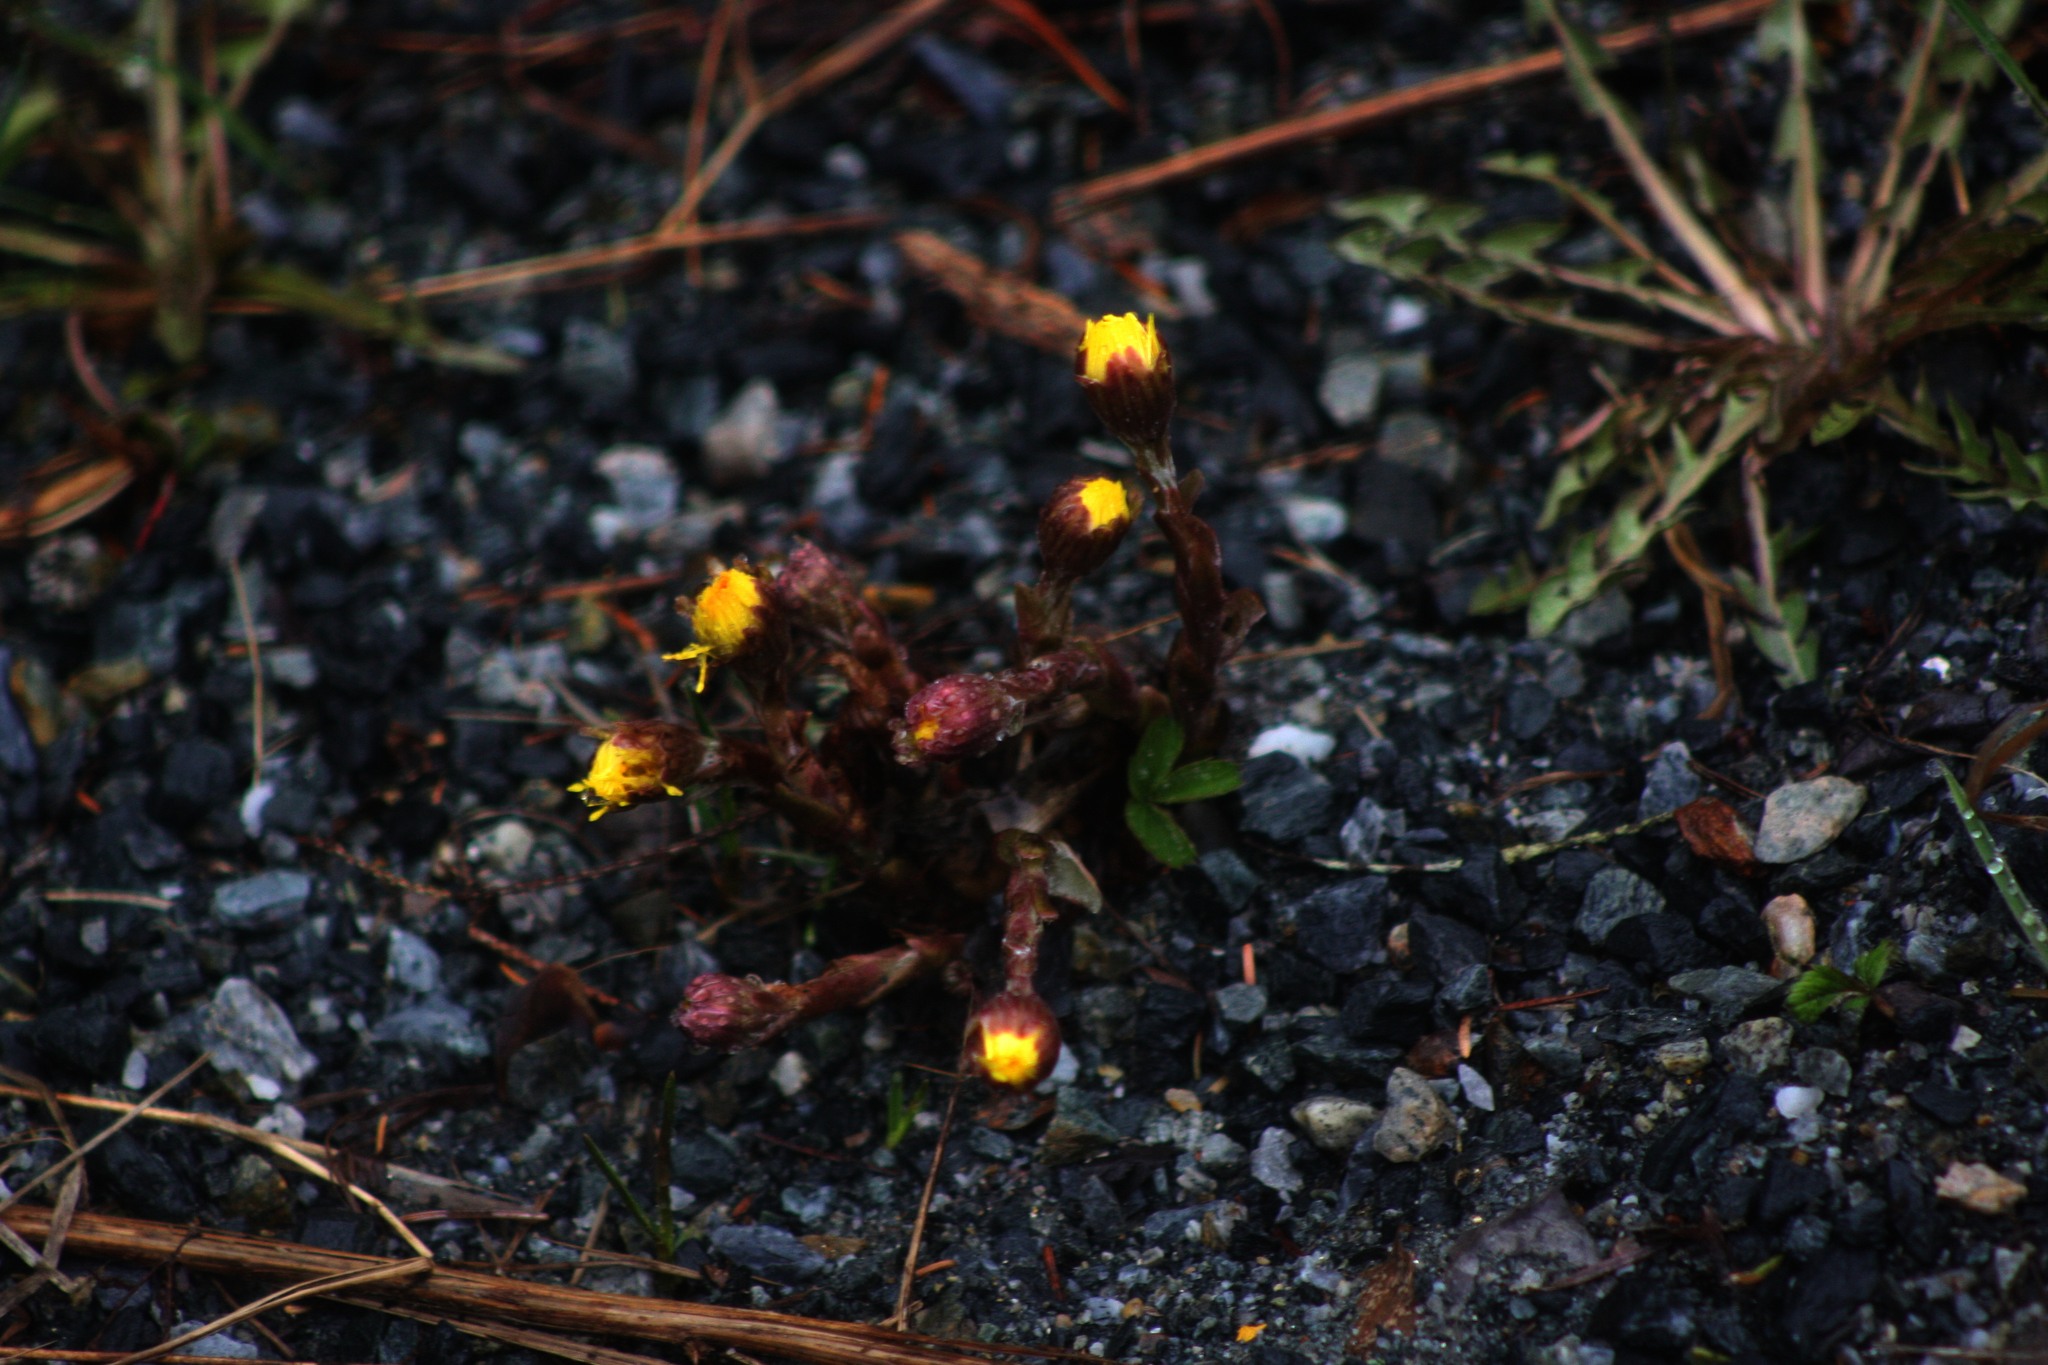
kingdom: Plantae
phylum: Tracheophyta
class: Magnoliopsida
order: Asterales
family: Asteraceae
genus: Tussilago
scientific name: Tussilago farfara
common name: Coltsfoot
